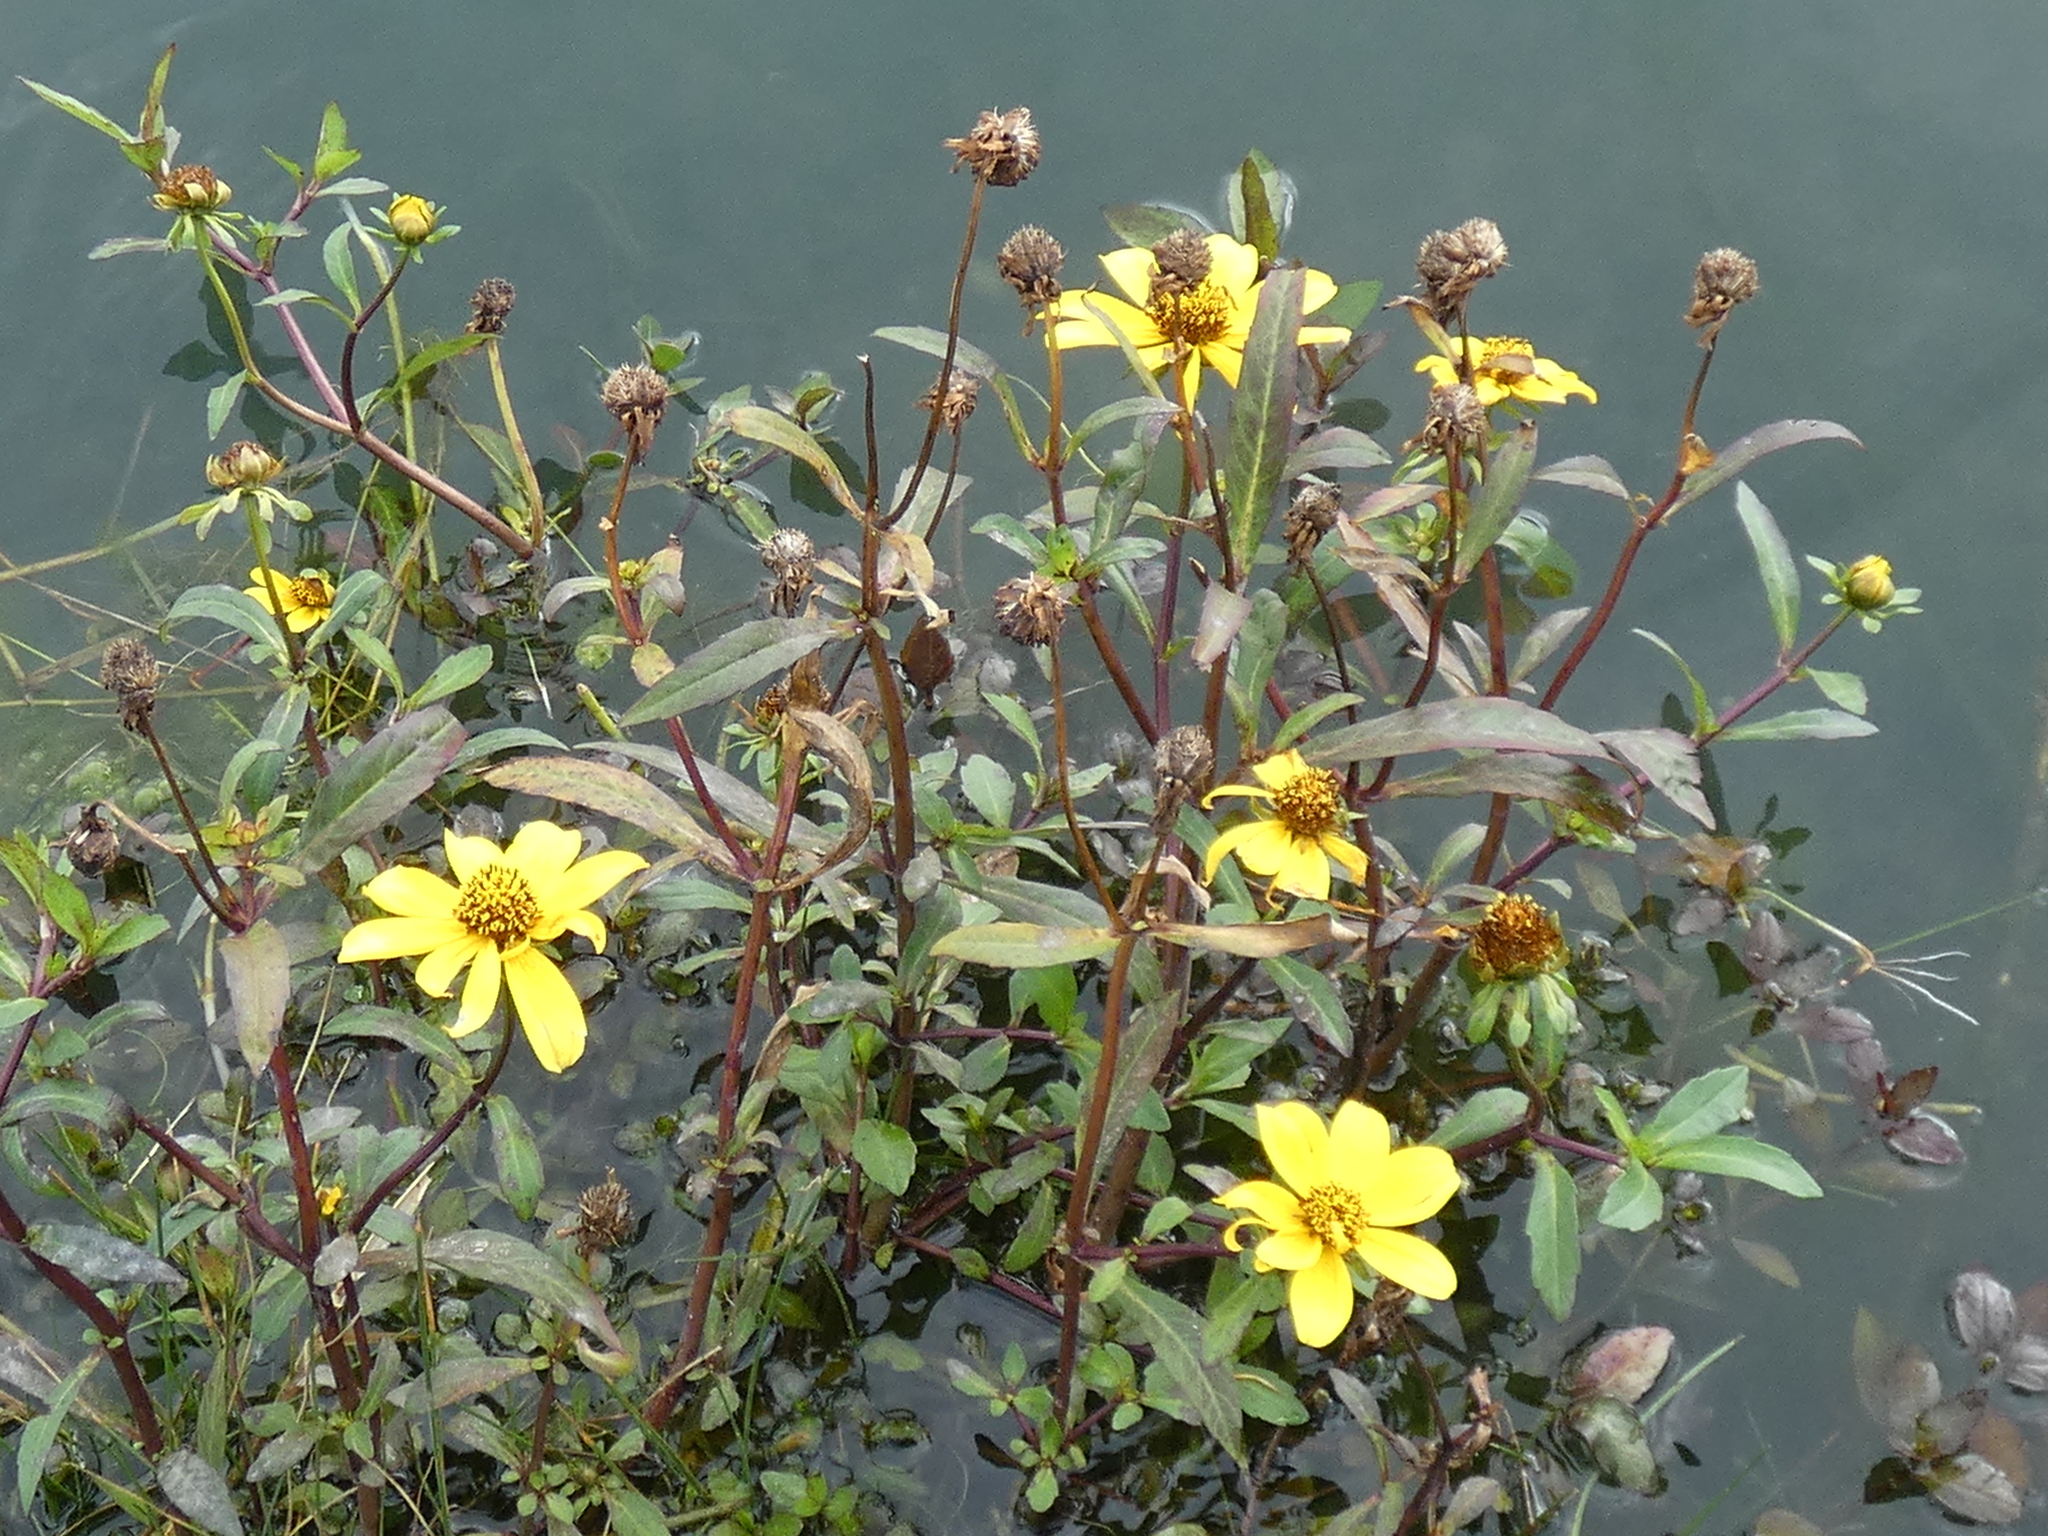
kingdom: Plantae
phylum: Tracheophyta
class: Magnoliopsida
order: Asterales
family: Asteraceae
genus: Bidens
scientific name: Bidens laevis
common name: Larger bur-marigold
